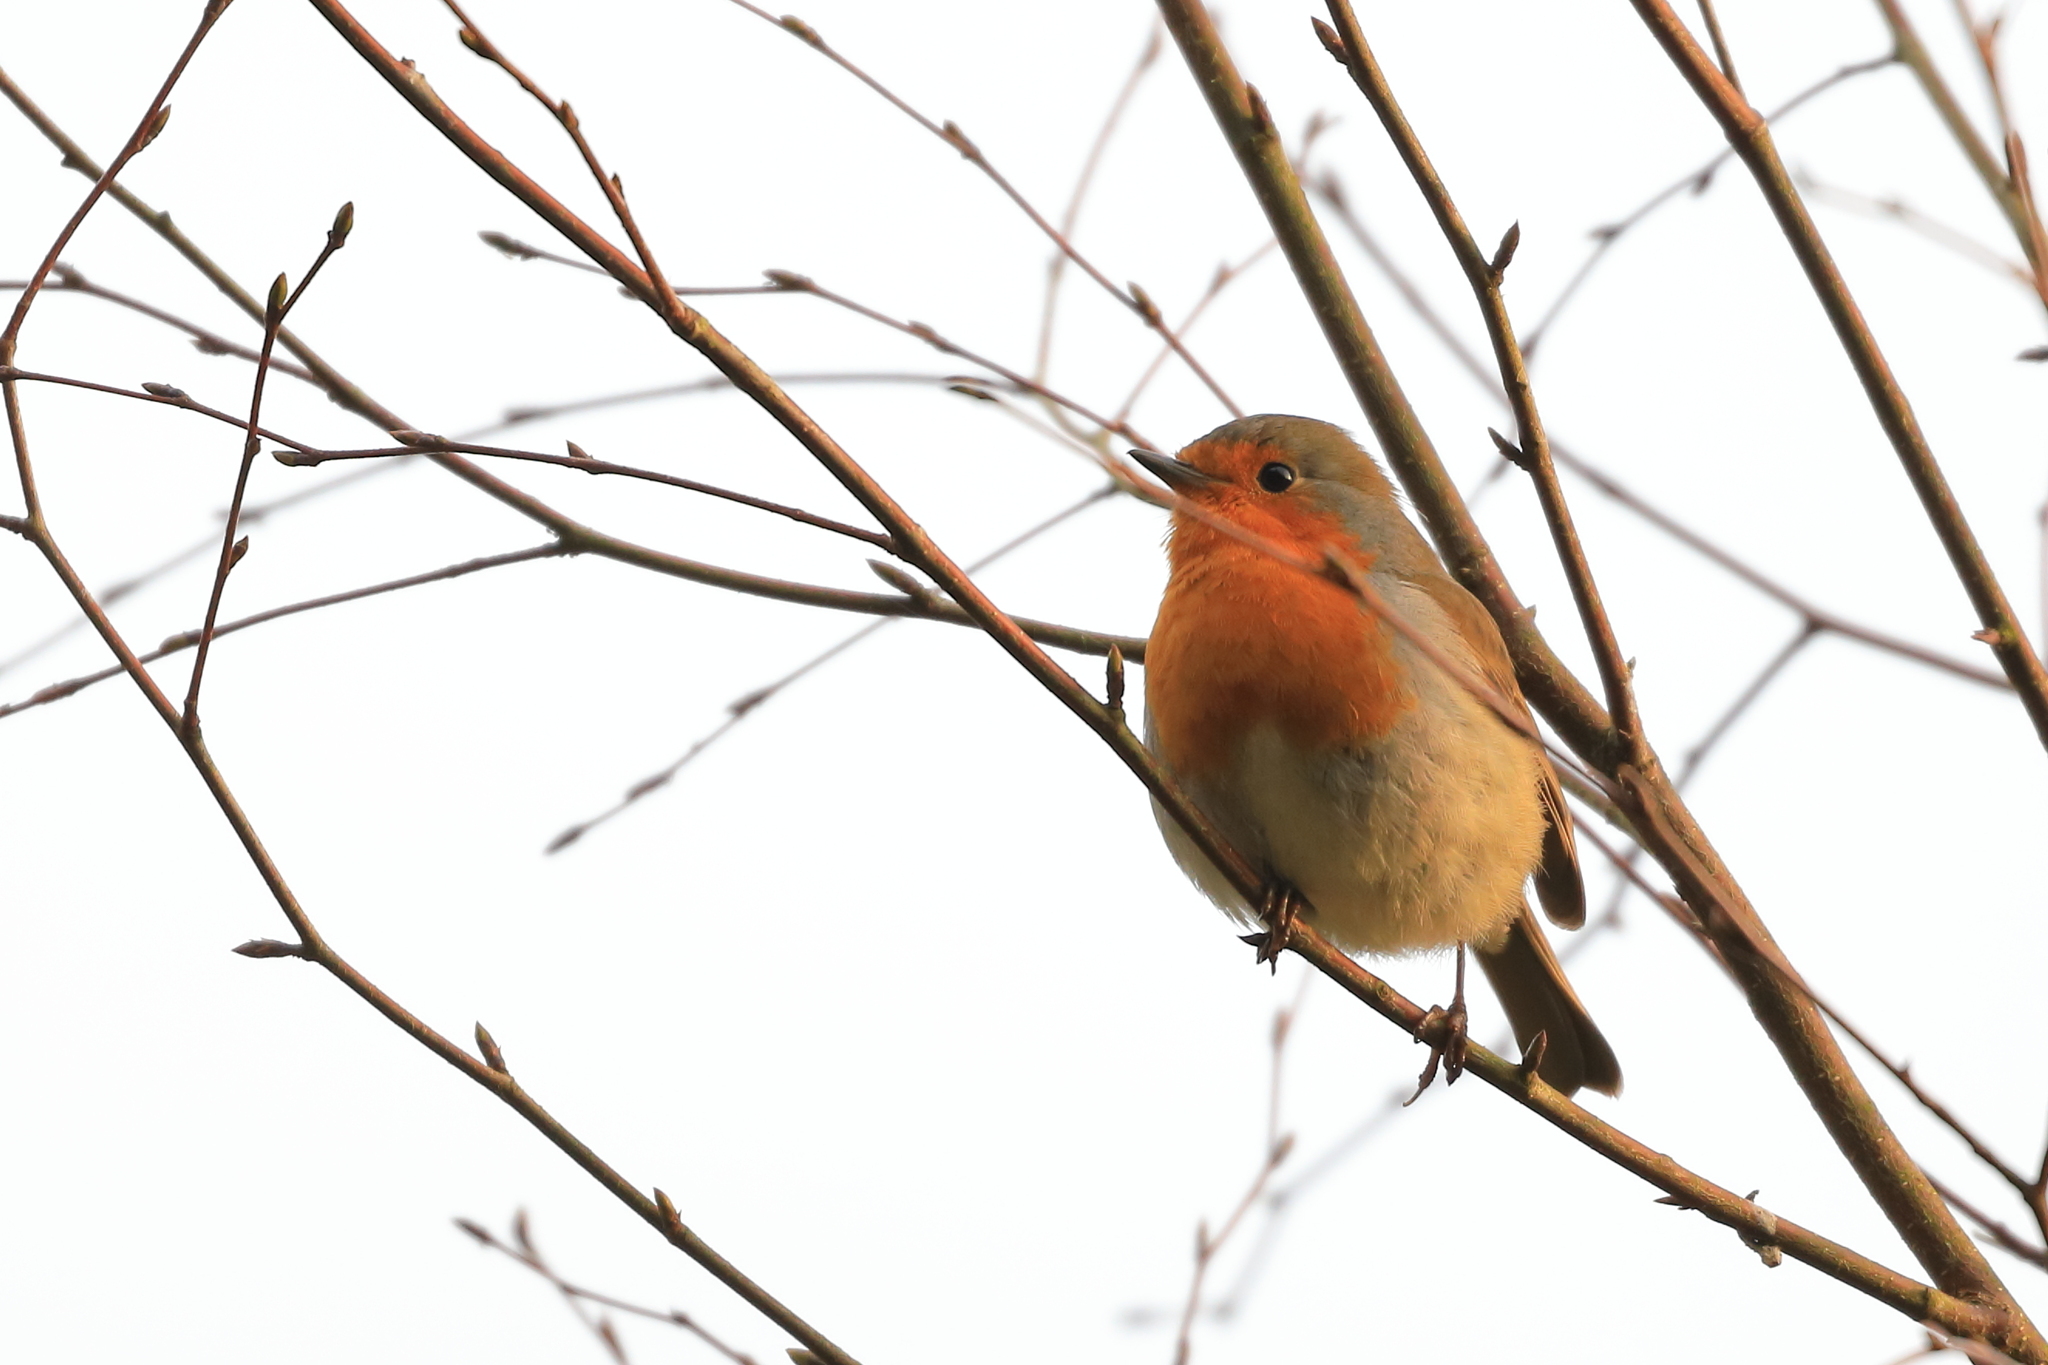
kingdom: Animalia
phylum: Chordata
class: Aves
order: Passeriformes
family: Muscicapidae
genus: Erithacus
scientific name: Erithacus rubecula
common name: European robin
